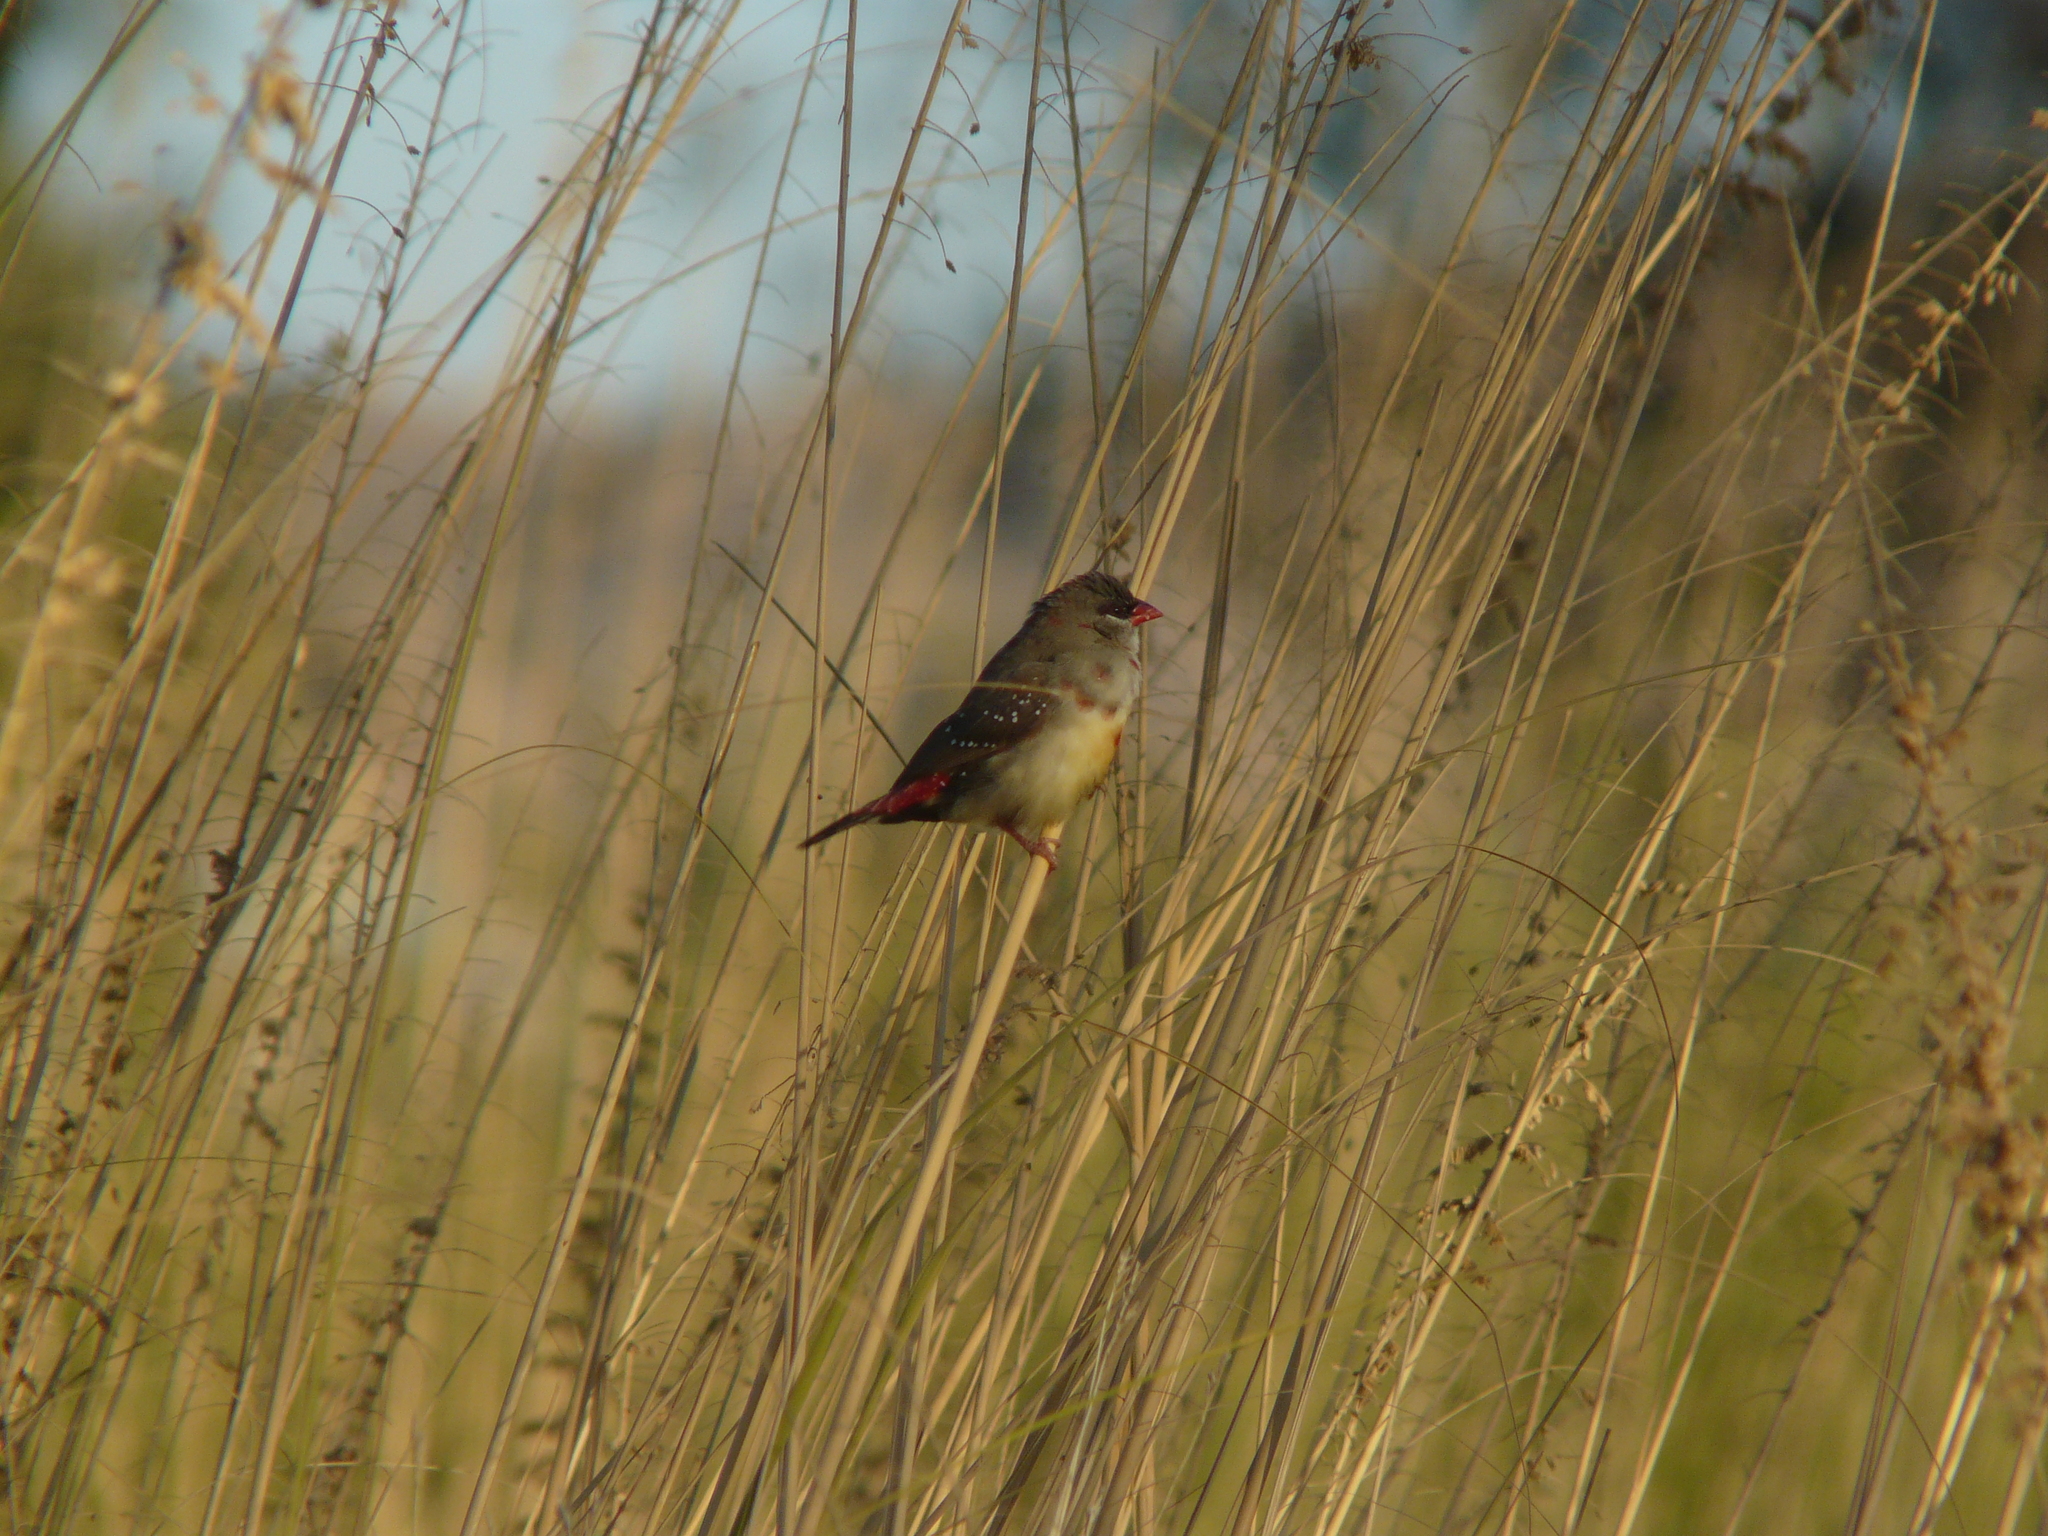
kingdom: Animalia
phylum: Chordata
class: Aves
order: Passeriformes
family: Estrildidae
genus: Amandava
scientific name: Amandava amandava
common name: Red avadavat
